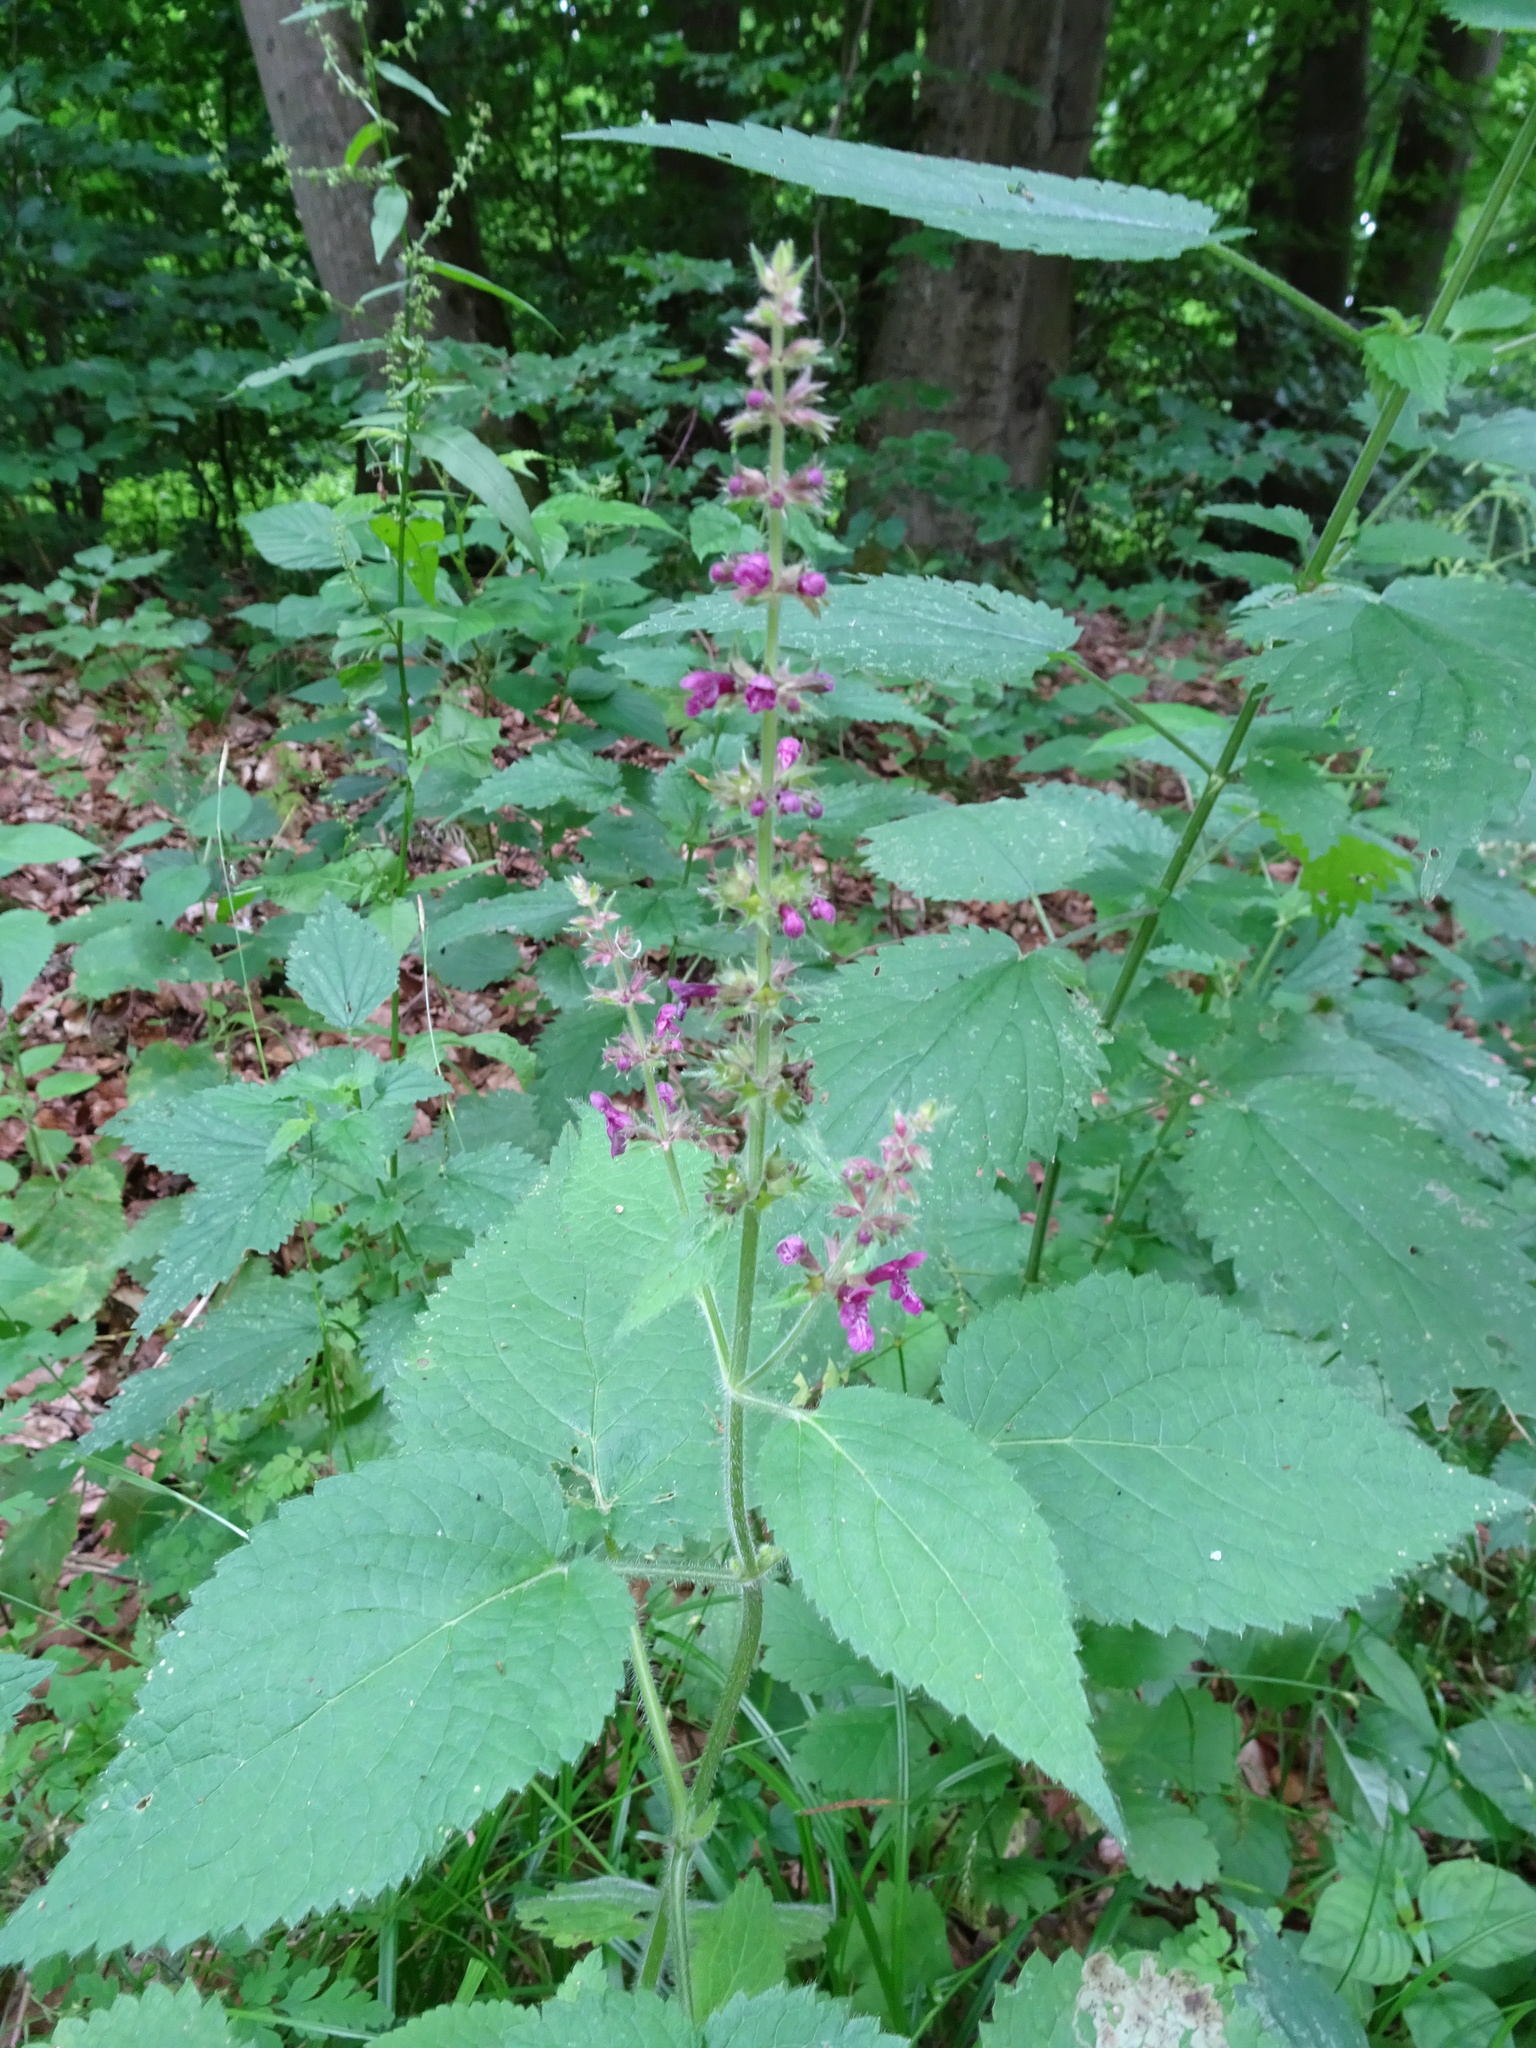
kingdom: Plantae
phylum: Tracheophyta
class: Magnoliopsida
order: Lamiales
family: Lamiaceae
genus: Stachys
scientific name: Stachys sylvatica
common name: Hedge woundwort
